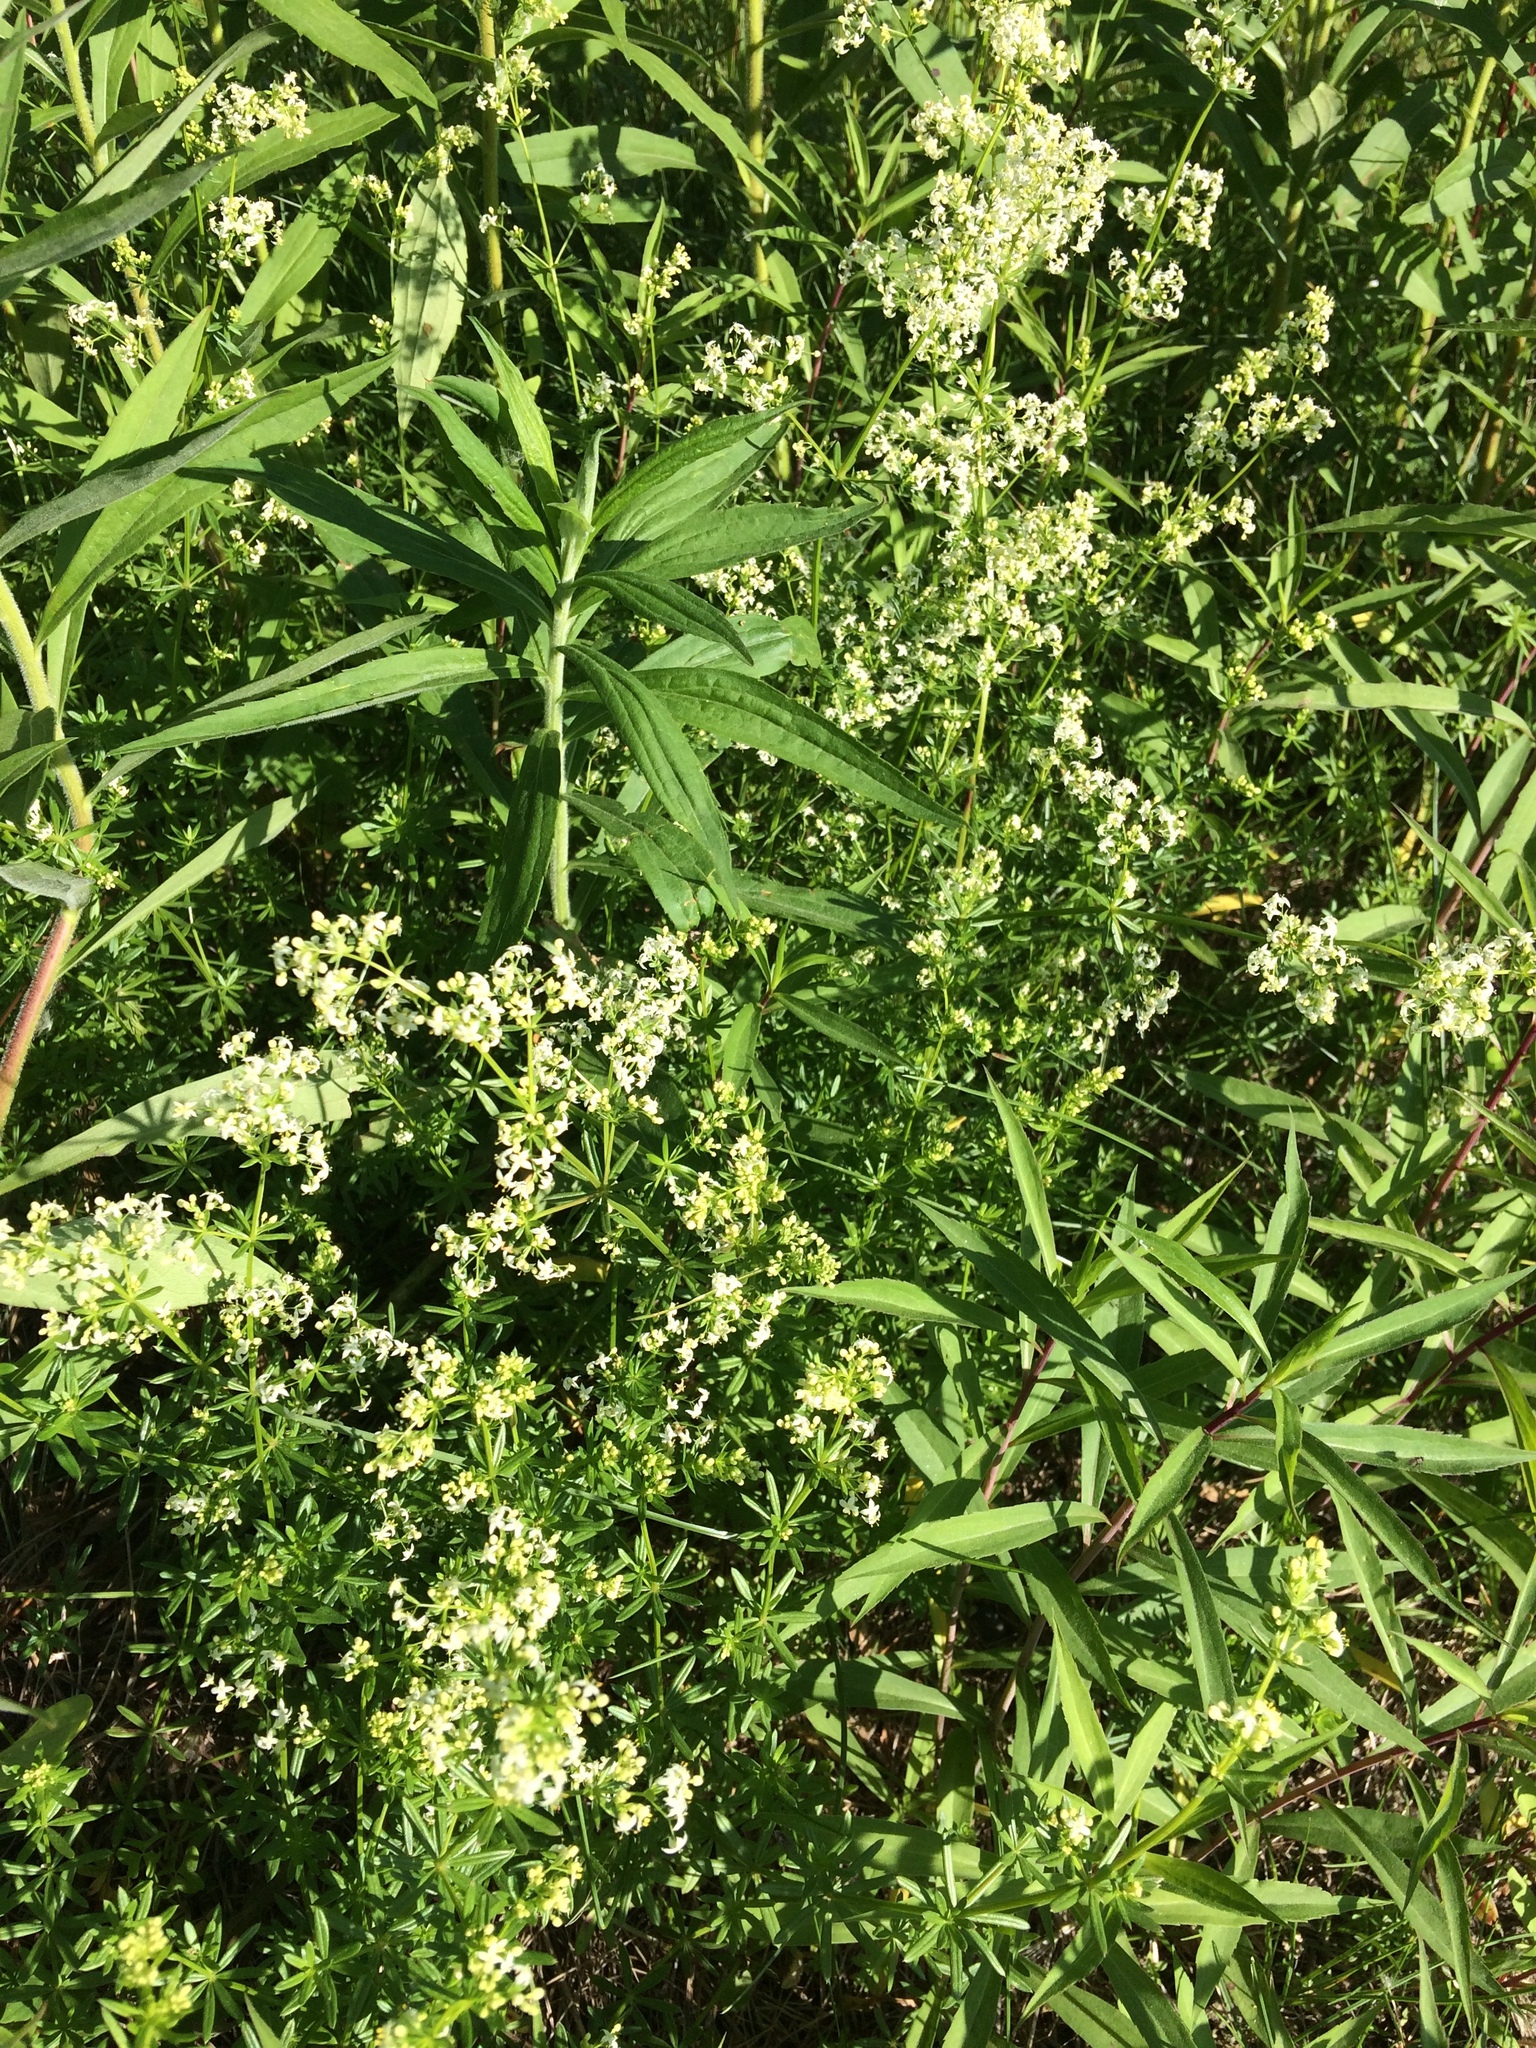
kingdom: Plantae
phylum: Tracheophyta
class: Magnoliopsida
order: Gentianales
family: Rubiaceae
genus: Galium
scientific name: Galium mollugo
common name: Hedge bedstraw
